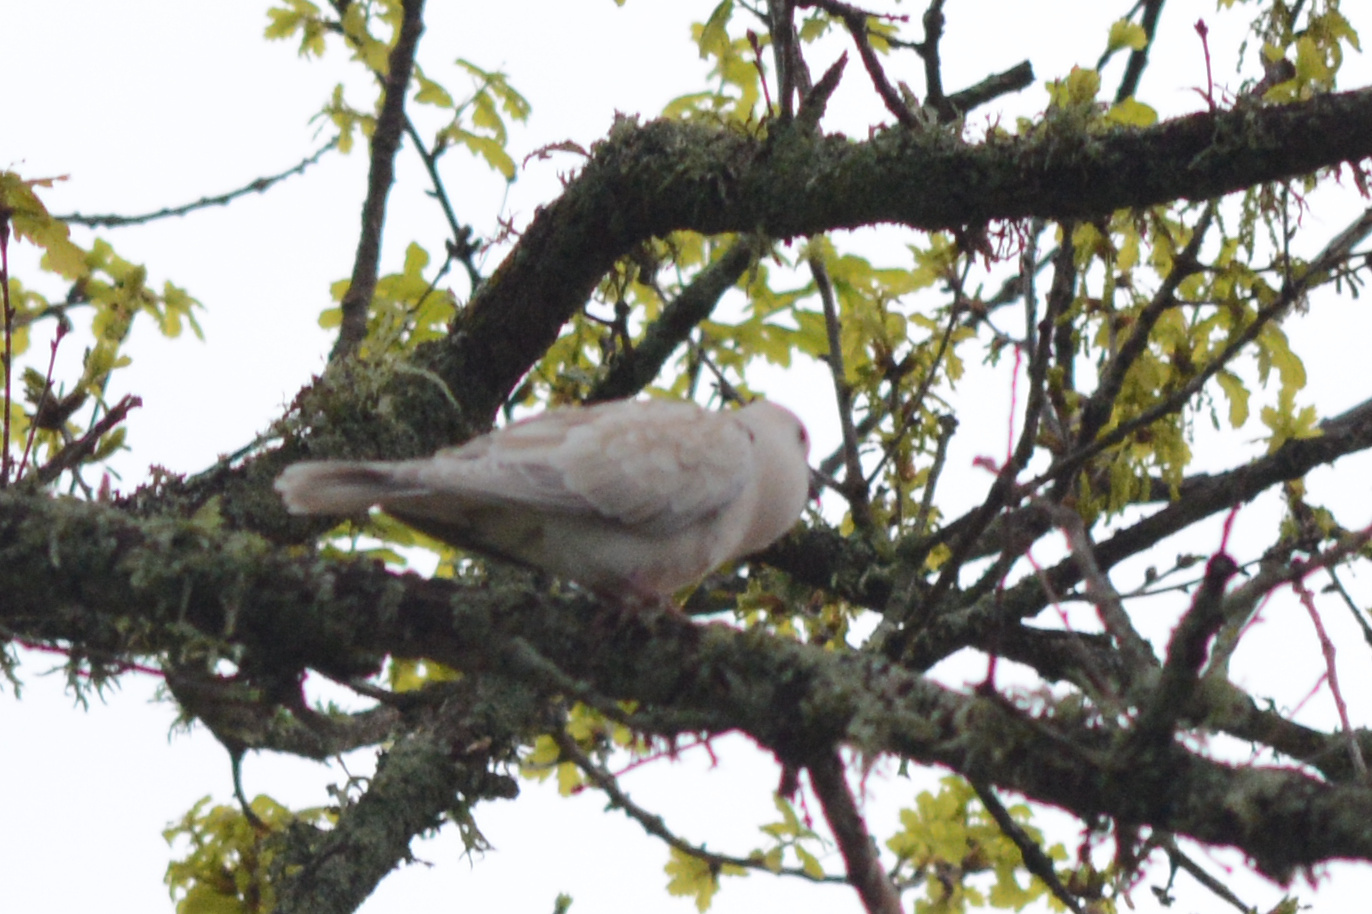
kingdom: Animalia
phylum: Chordata
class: Aves
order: Columbiformes
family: Columbidae
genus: Streptopelia
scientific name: Streptopelia roseogrisea
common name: African collared dove
